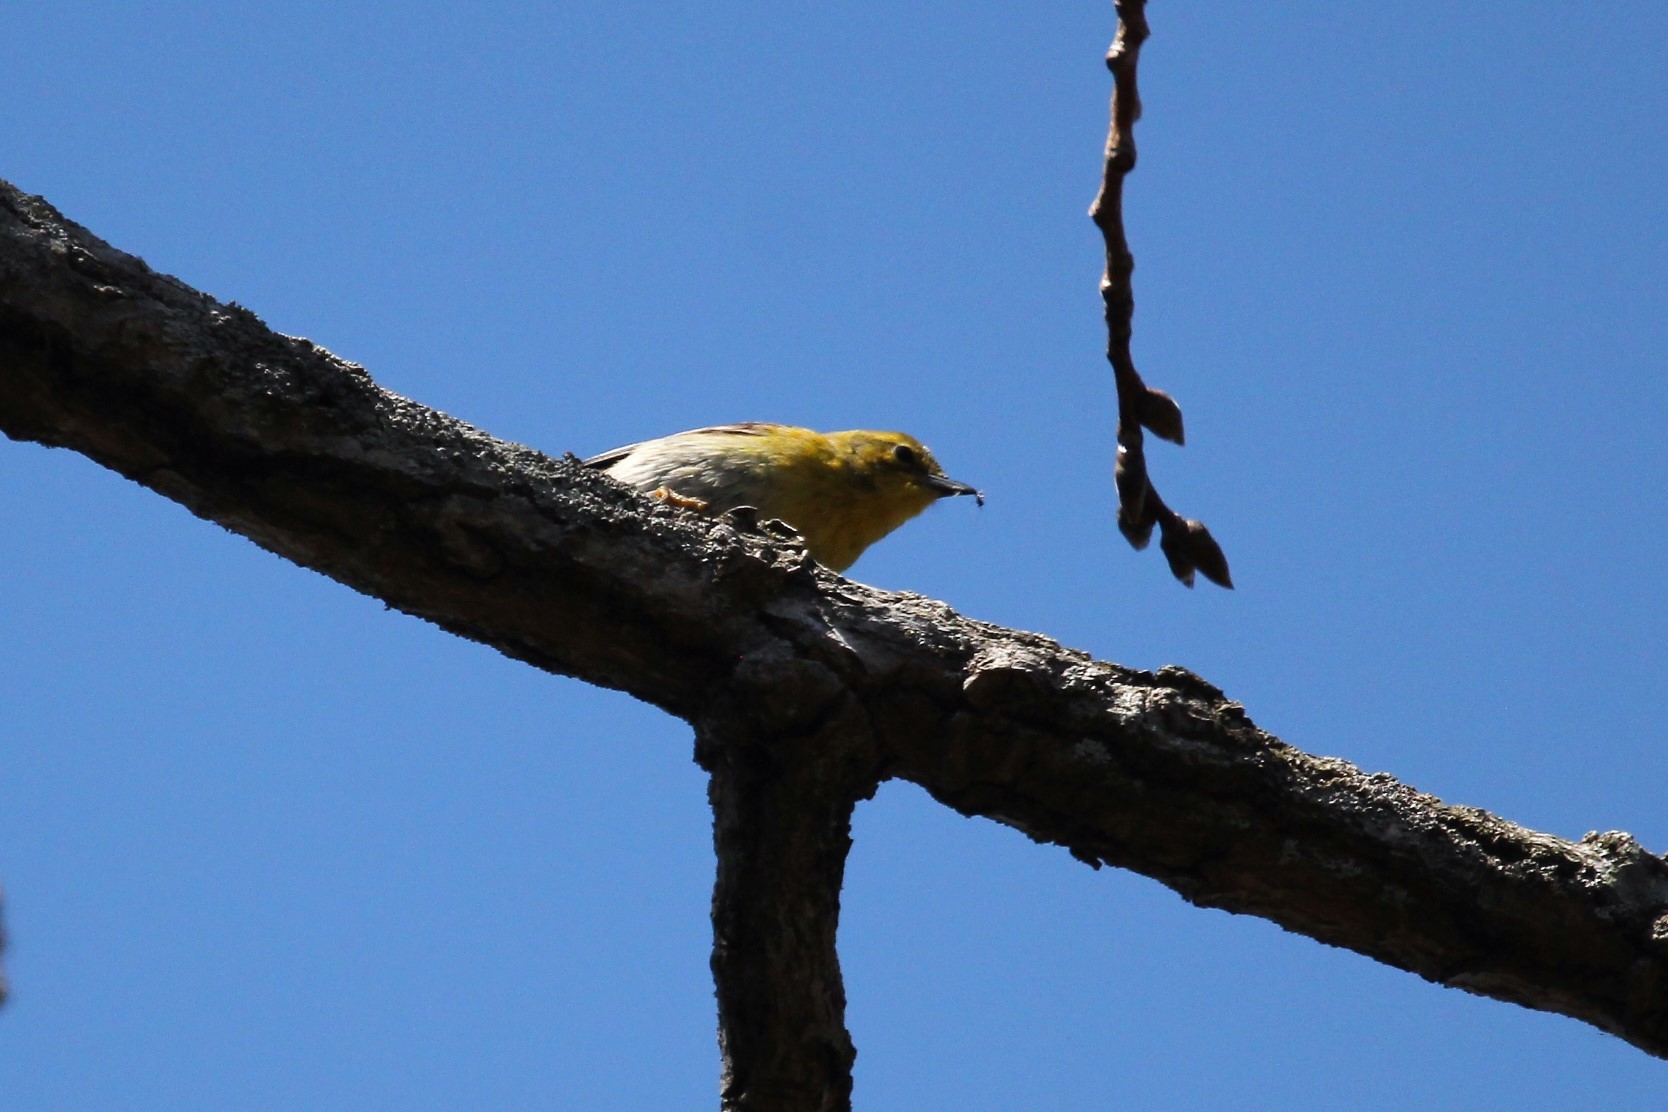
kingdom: Animalia
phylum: Chordata
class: Aves
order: Passeriformes
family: Parulidae
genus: Setophaga
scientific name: Setophaga pinus
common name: Pine warbler
